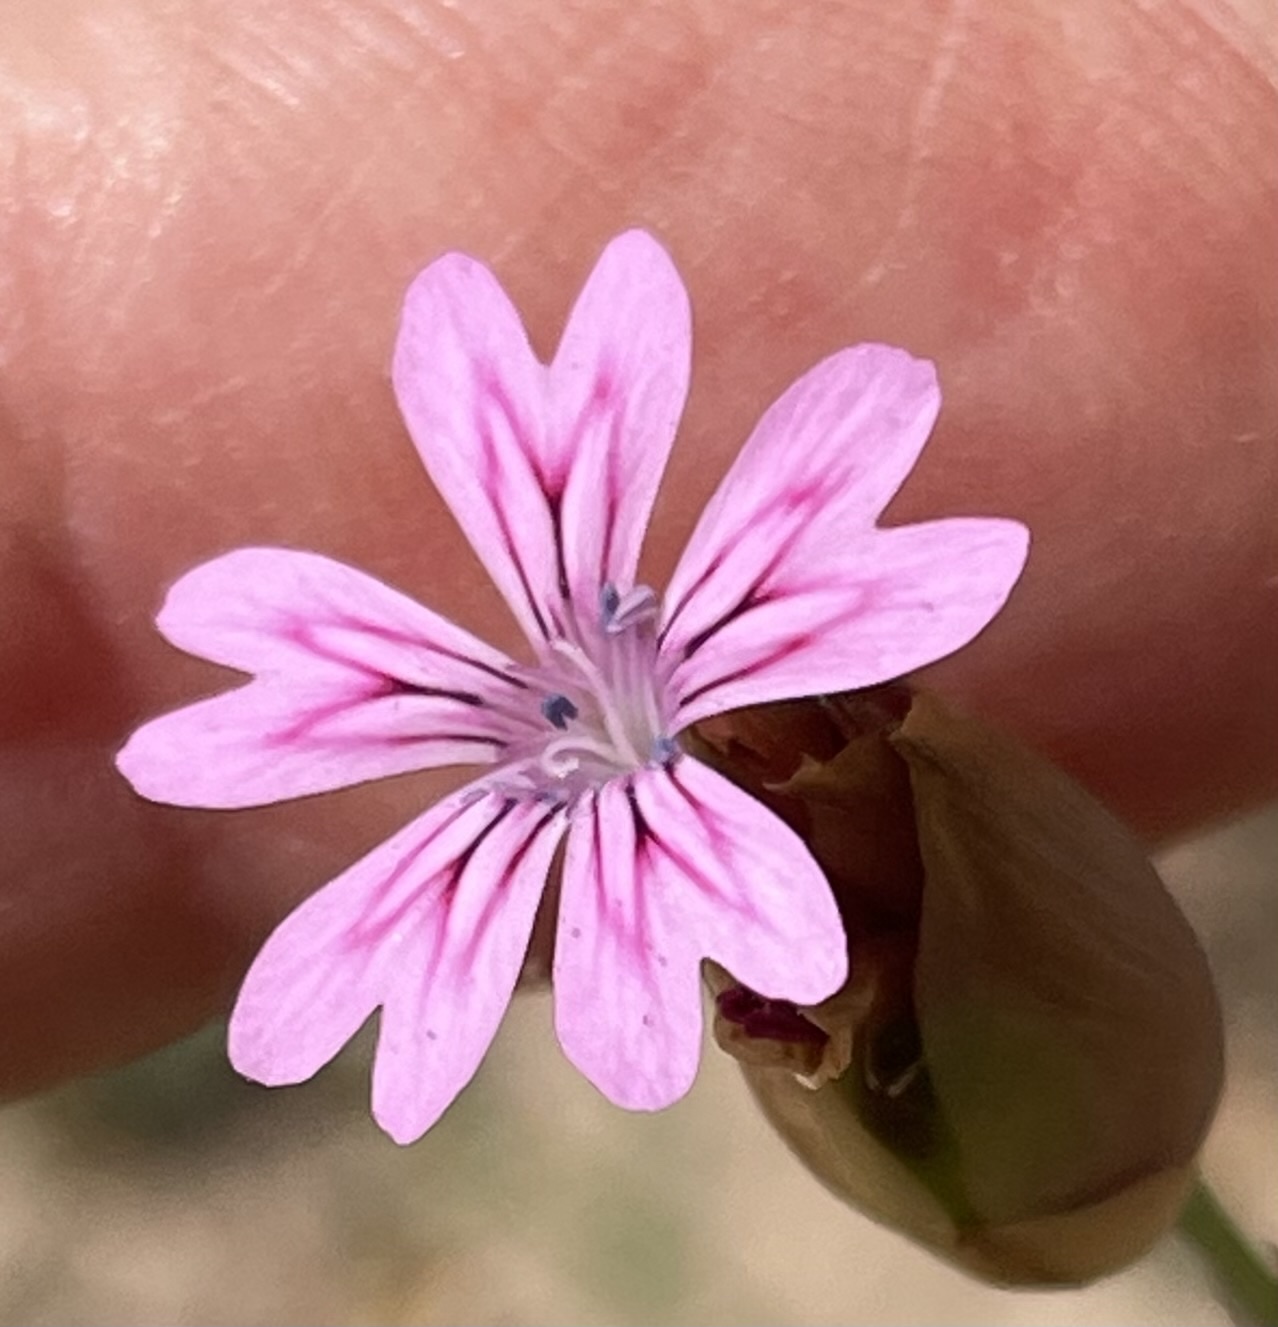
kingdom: Plantae
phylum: Tracheophyta
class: Magnoliopsida
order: Caryophyllales
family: Caryophyllaceae
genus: Petrorhagia
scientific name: Petrorhagia dubia
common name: Hairypink
